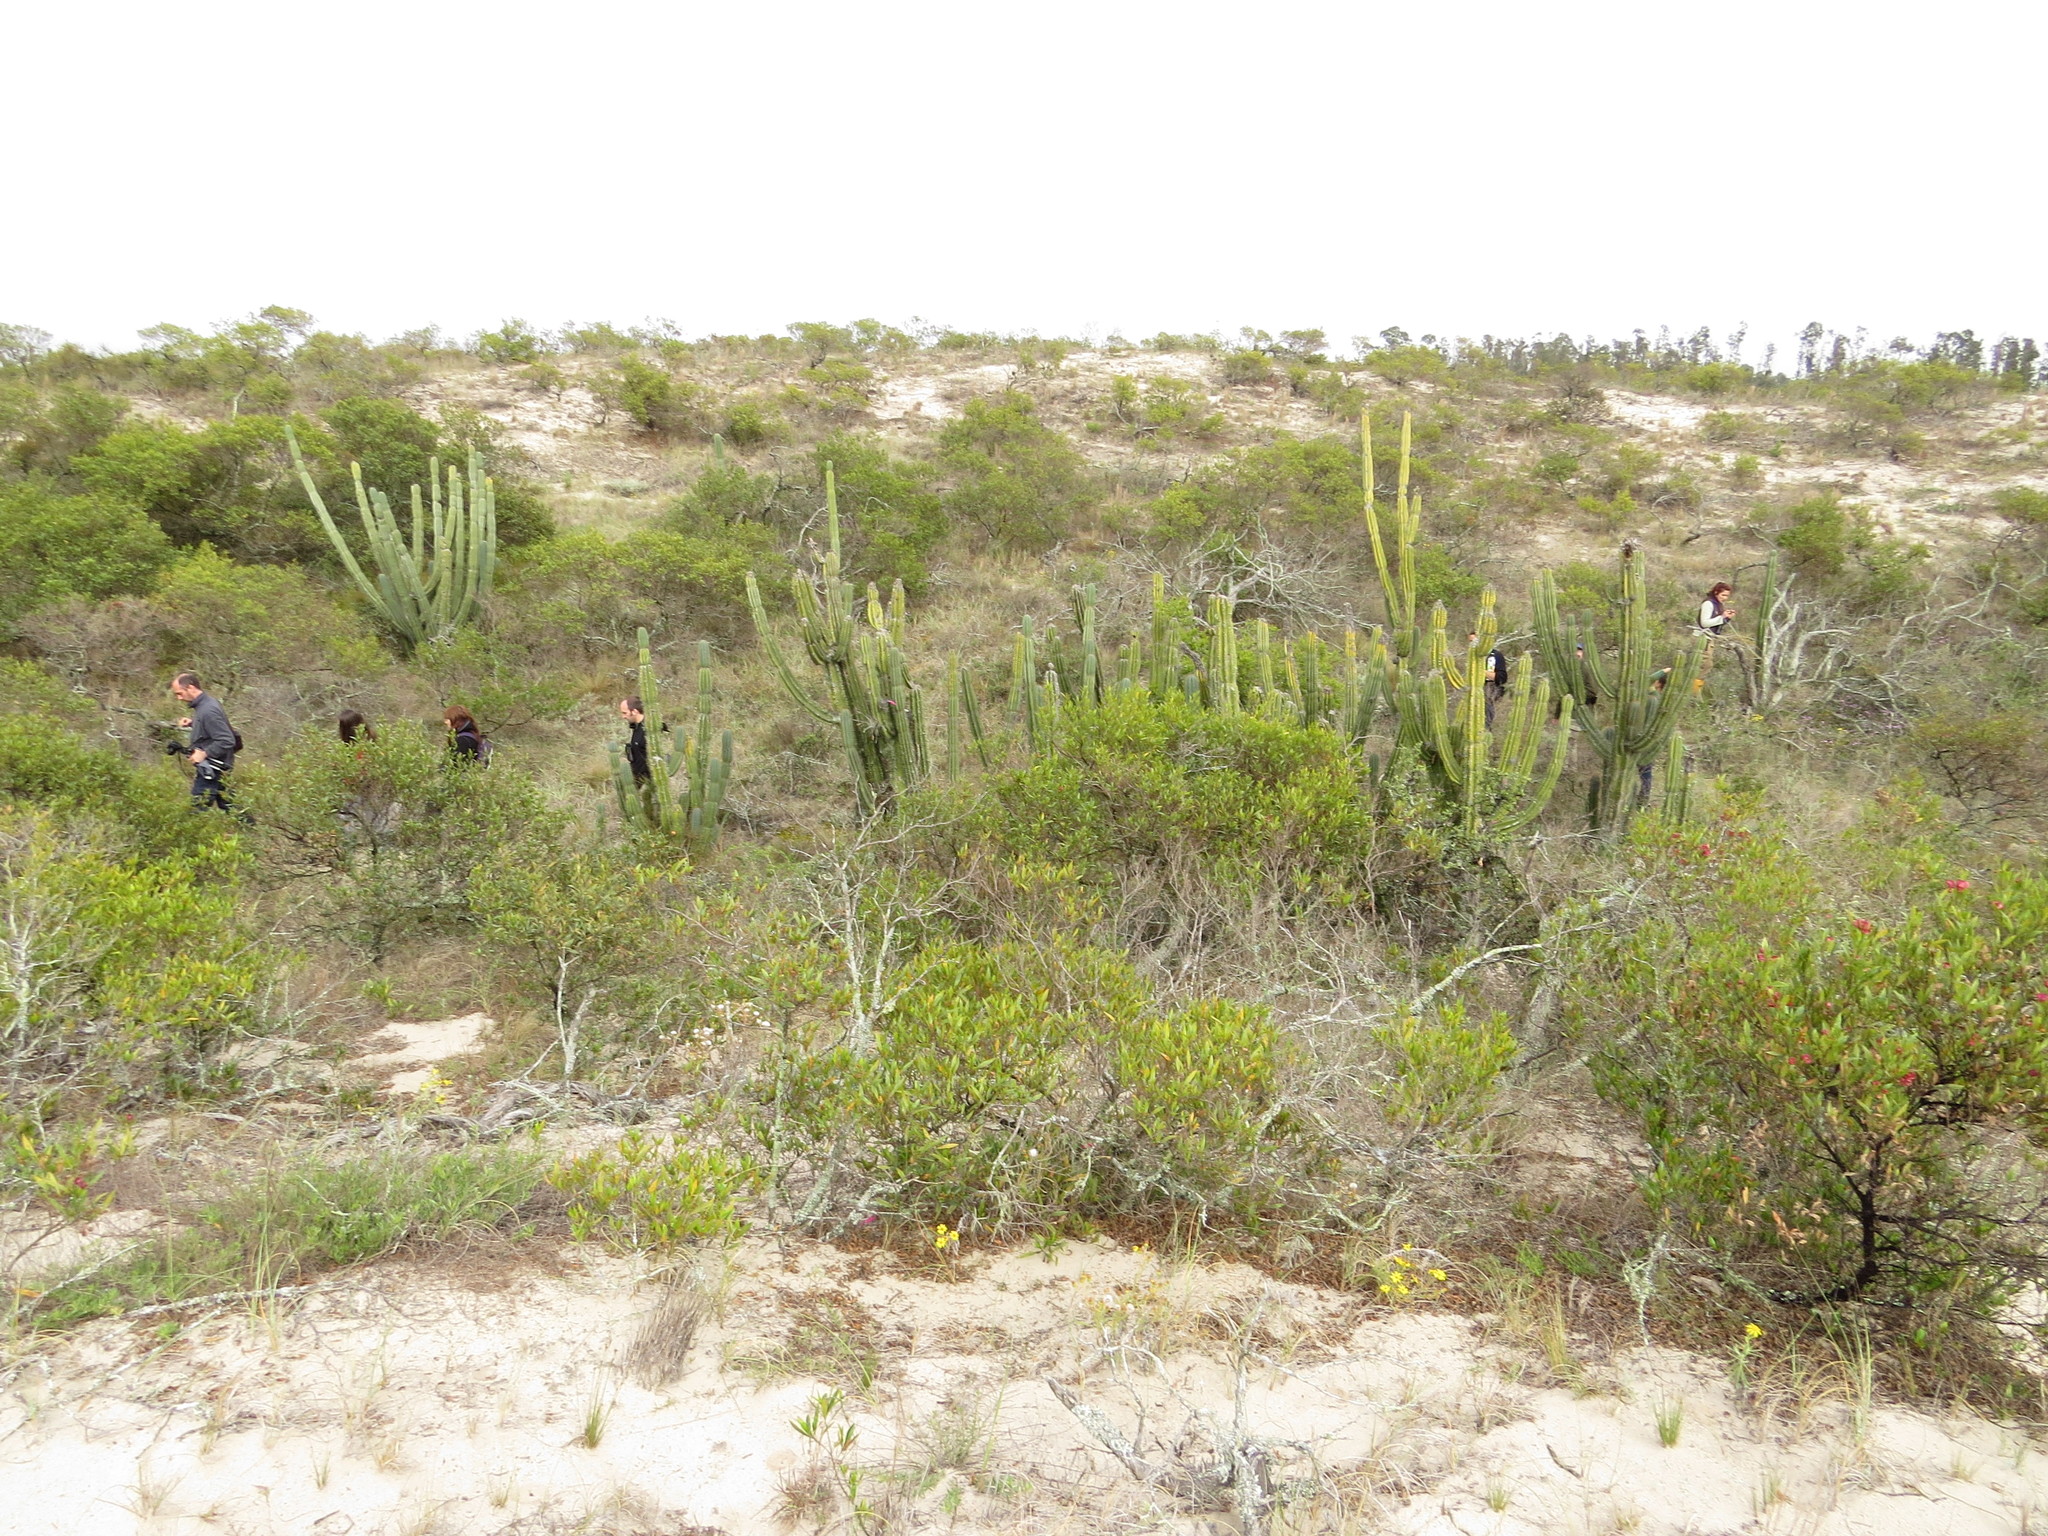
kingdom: Plantae
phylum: Tracheophyta
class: Magnoliopsida
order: Caryophyllales
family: Cactaceae
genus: Cereus
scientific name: Cereus hildmannianus
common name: Hedge cactus
